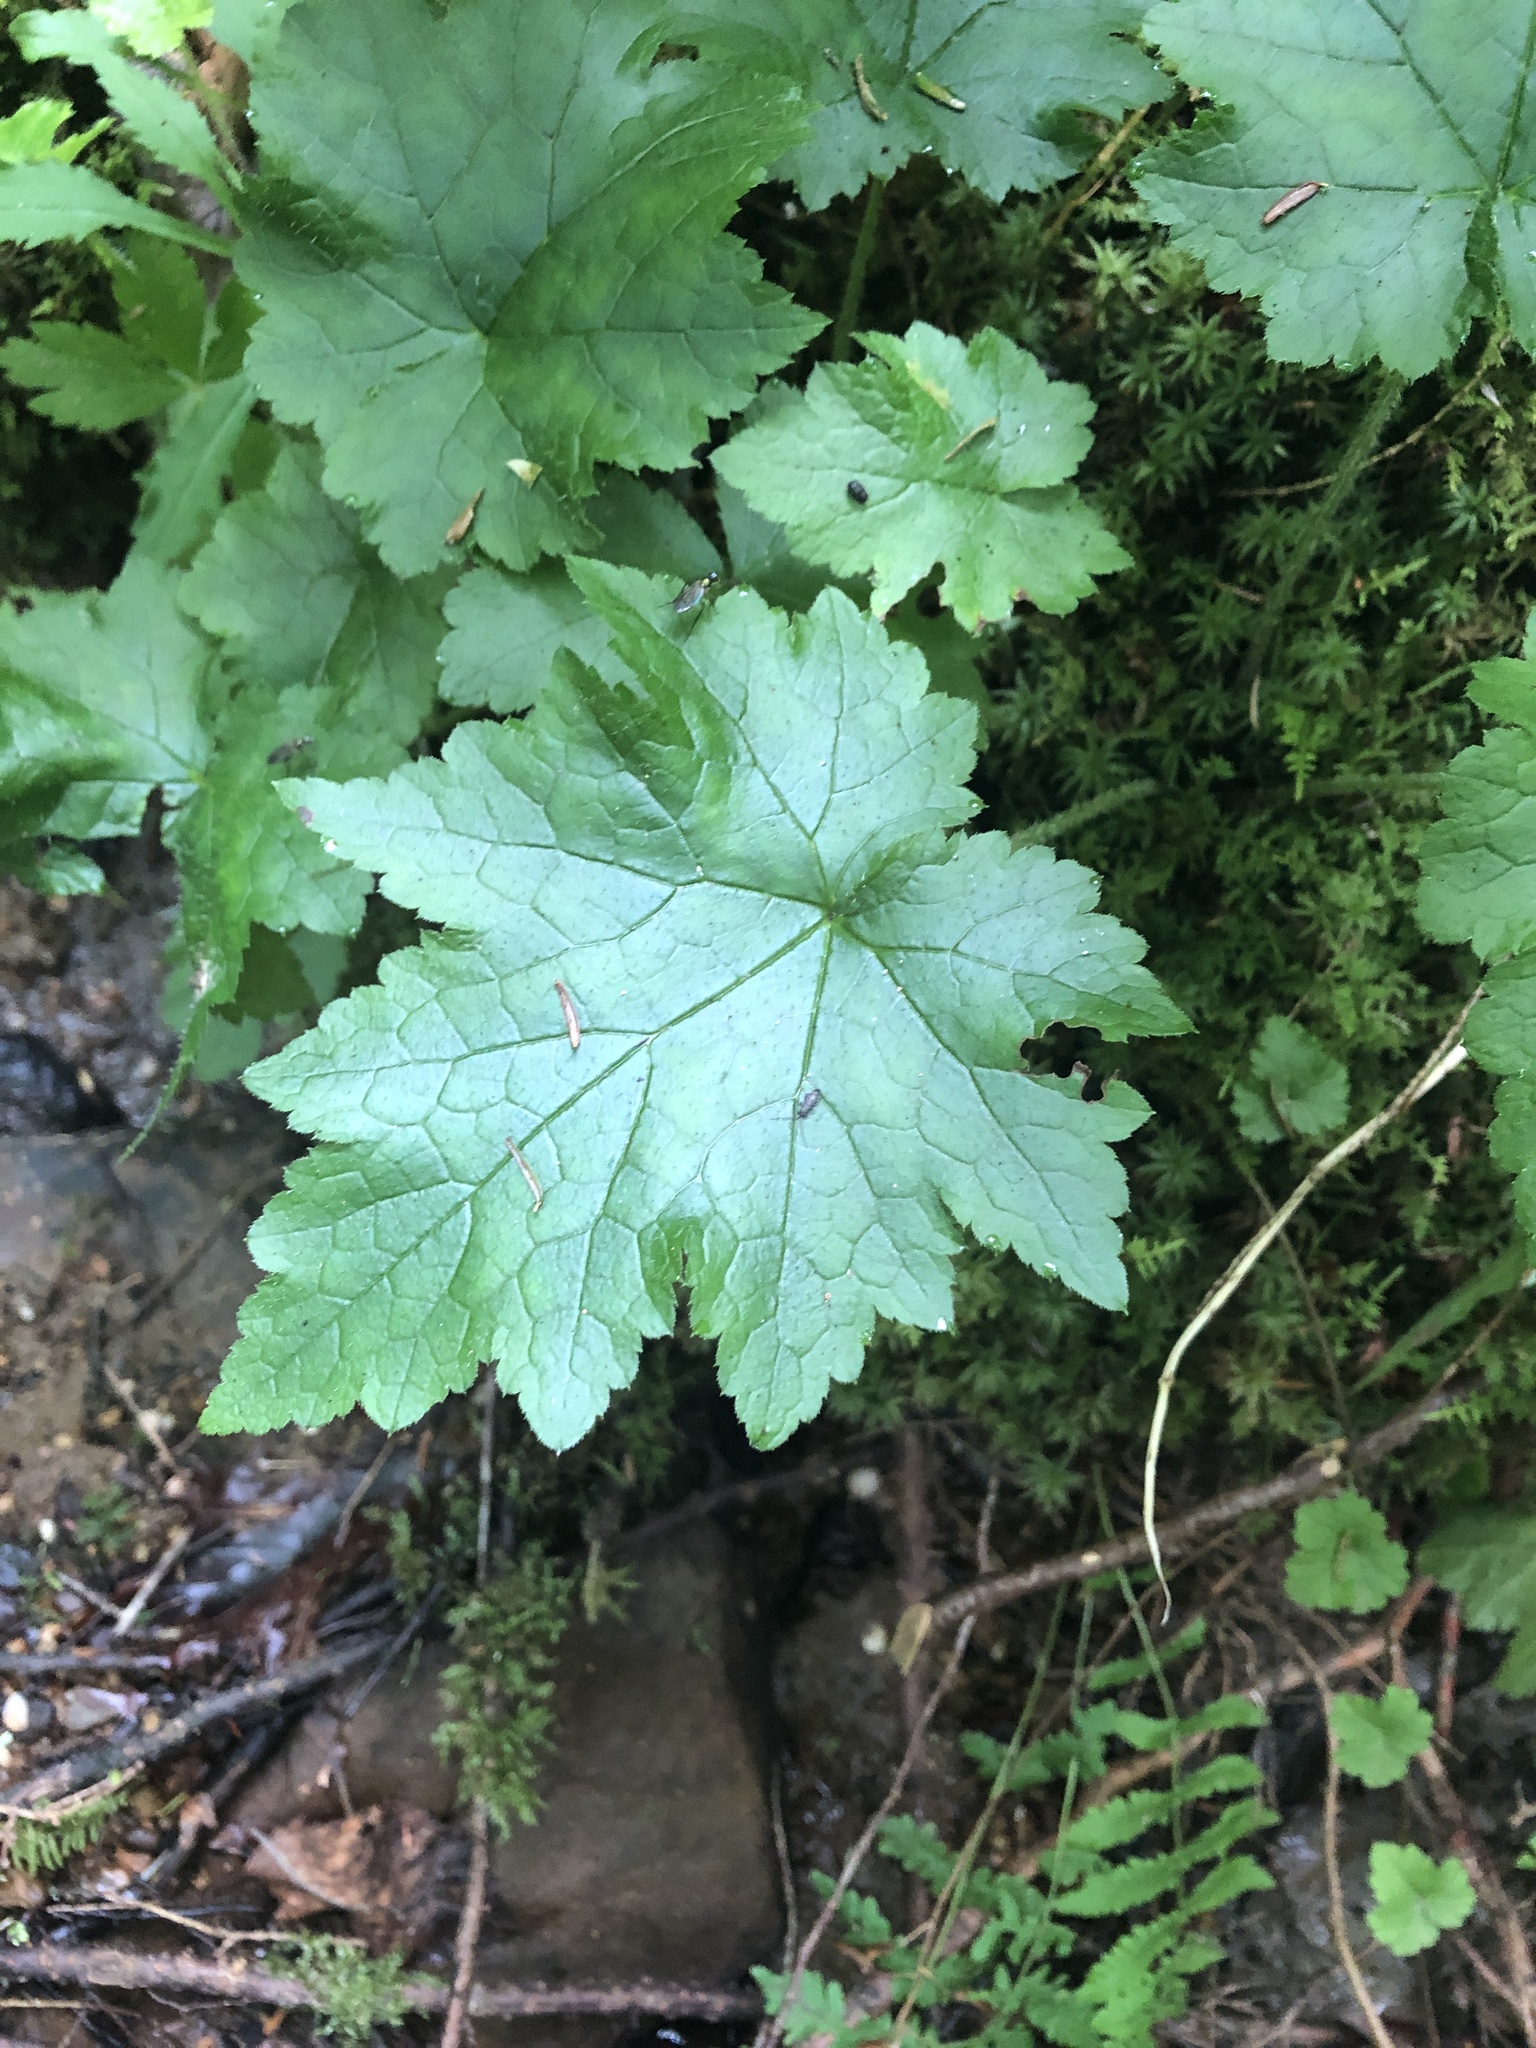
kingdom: Plantae
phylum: Tracheophyta
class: Magnoliopsida
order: Saxifragales
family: Saxifragaceae
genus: Tiarella
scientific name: Tiarella stolonifera
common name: Stoloniferous foamflower
